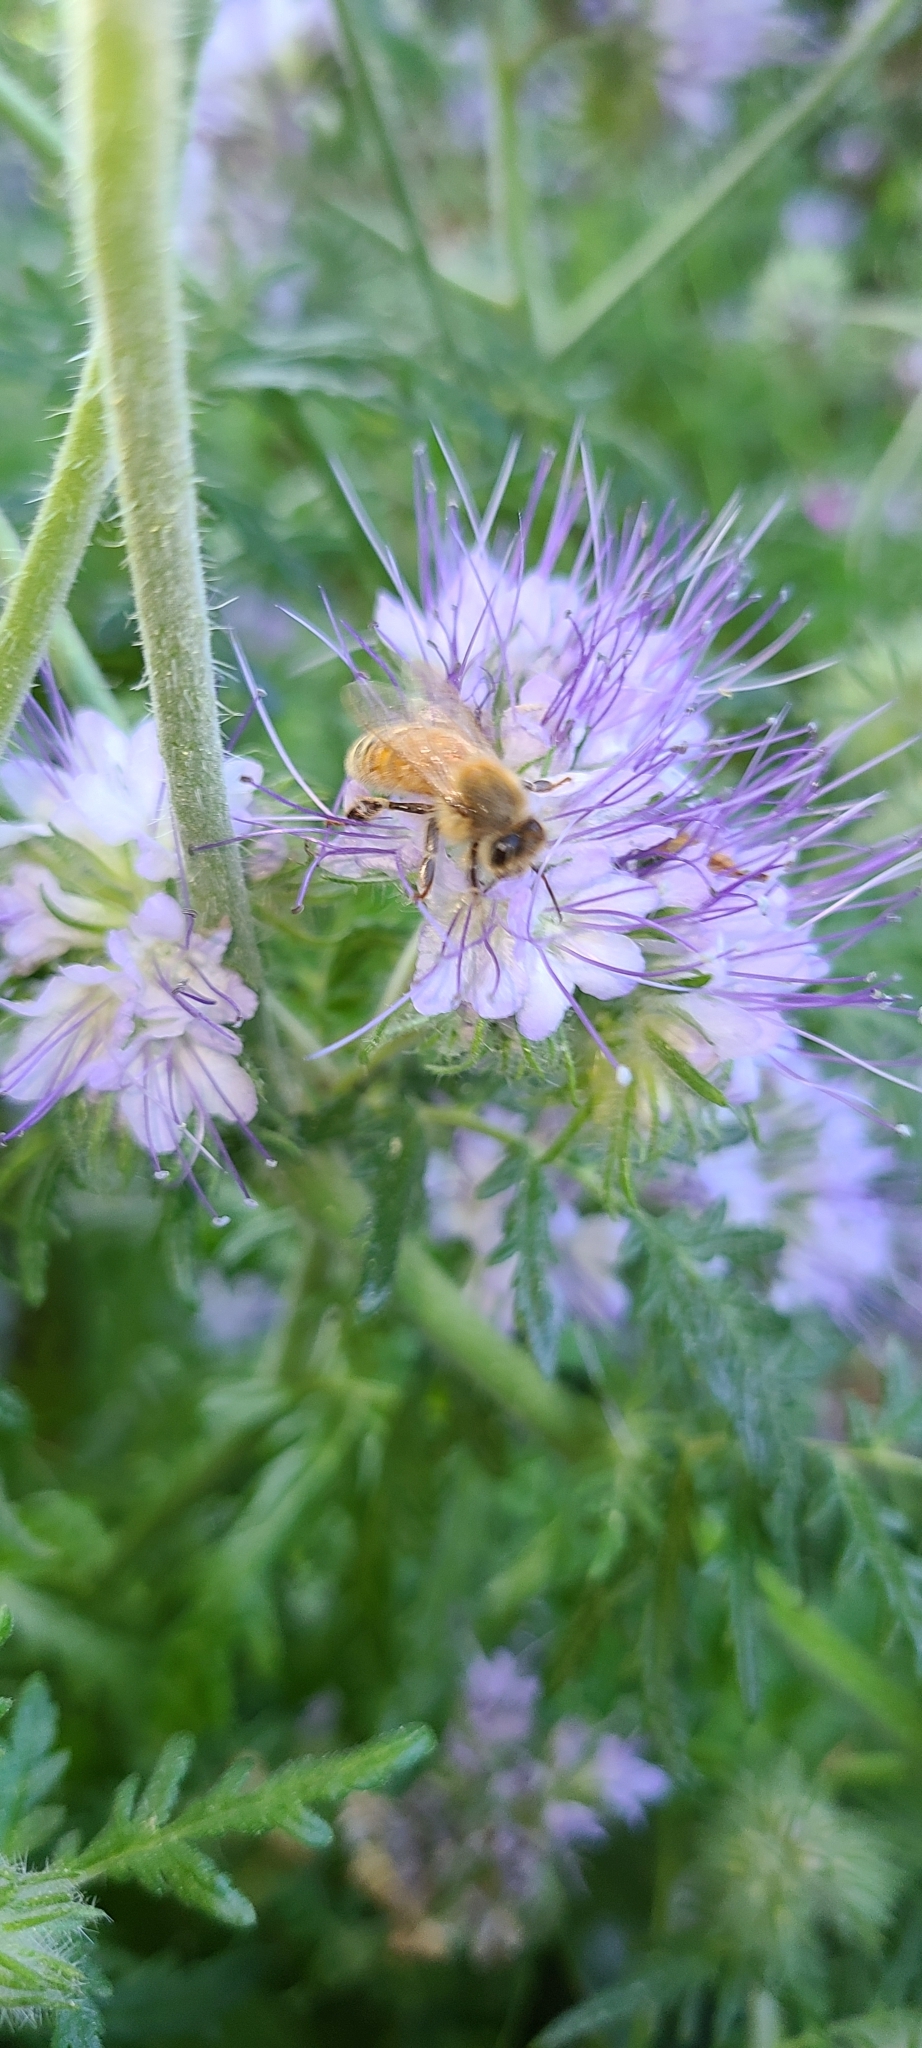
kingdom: Animalia
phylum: Arthropoda
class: Insecta
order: Hymenoptera
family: Apidae
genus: Apis
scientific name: Apis mellifera
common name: Honey bee
